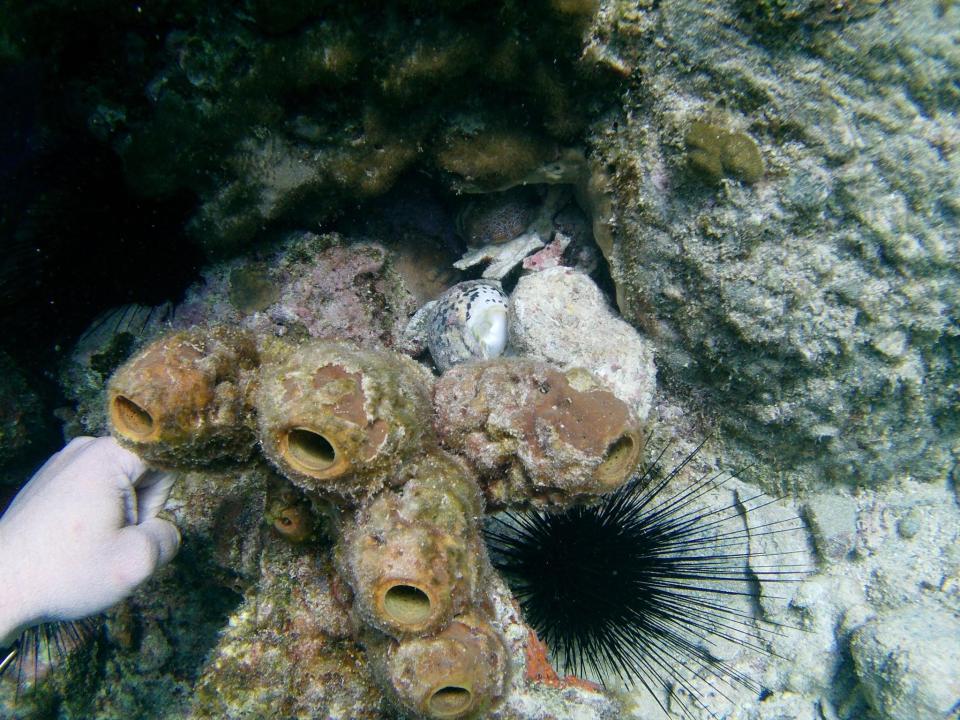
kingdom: Animalia
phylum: Echinodermata
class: Echinoidea
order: Diadematoida
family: Diadematidae
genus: Diadema
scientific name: Diadema antillarum
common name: Spiny urchin
